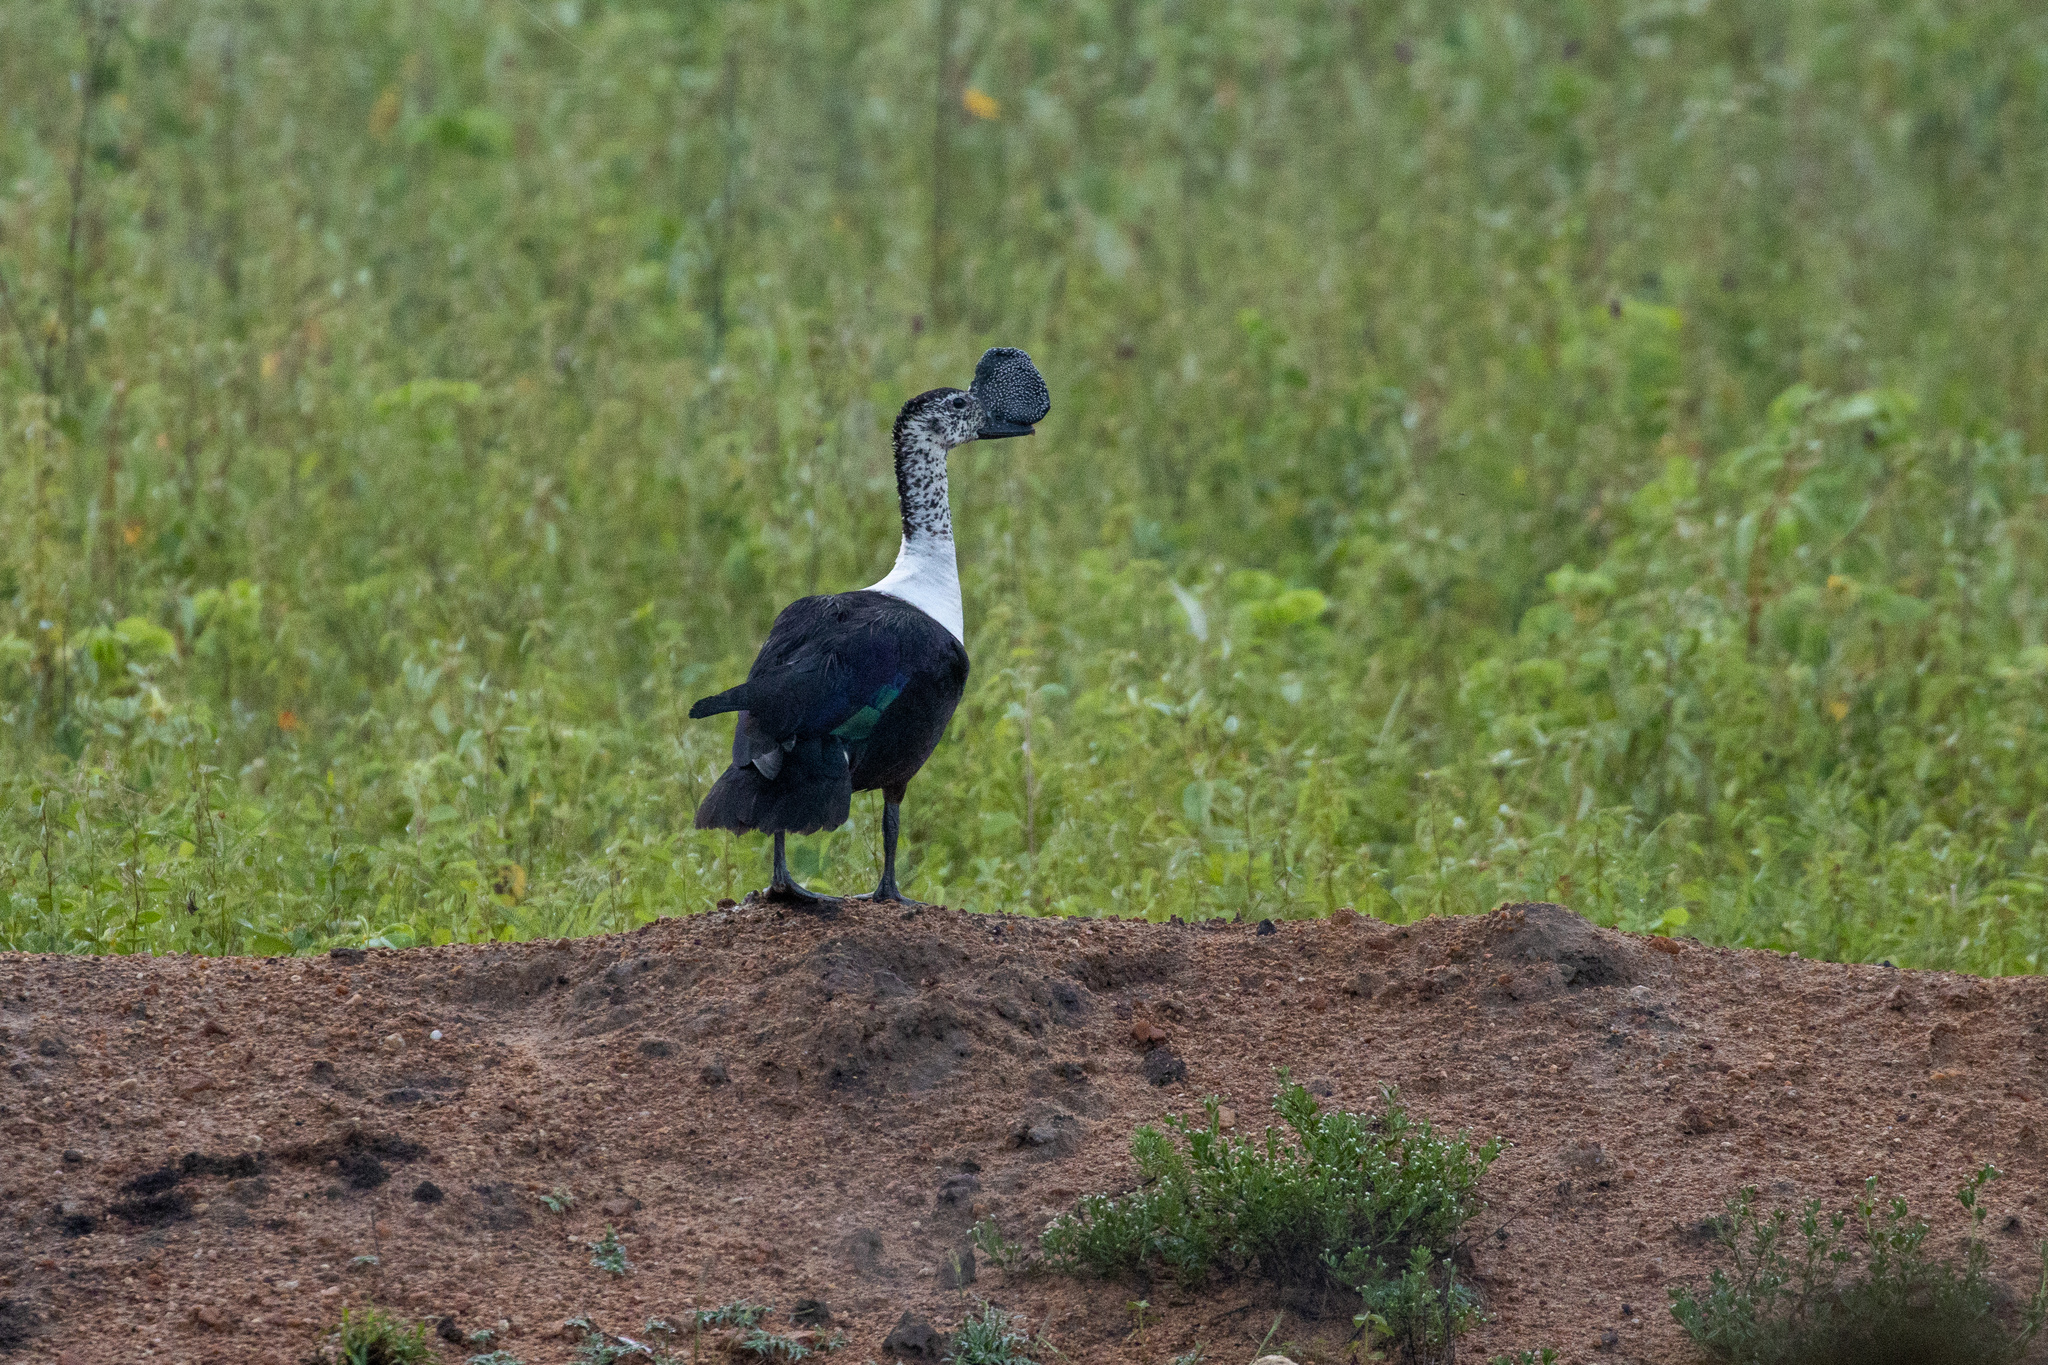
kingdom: Animalia
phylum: Chordata
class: Aves
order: Anseriformes
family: Anatidae
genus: Sarkidiornis
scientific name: Sarkidiornis sylvicola
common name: Comb duck
